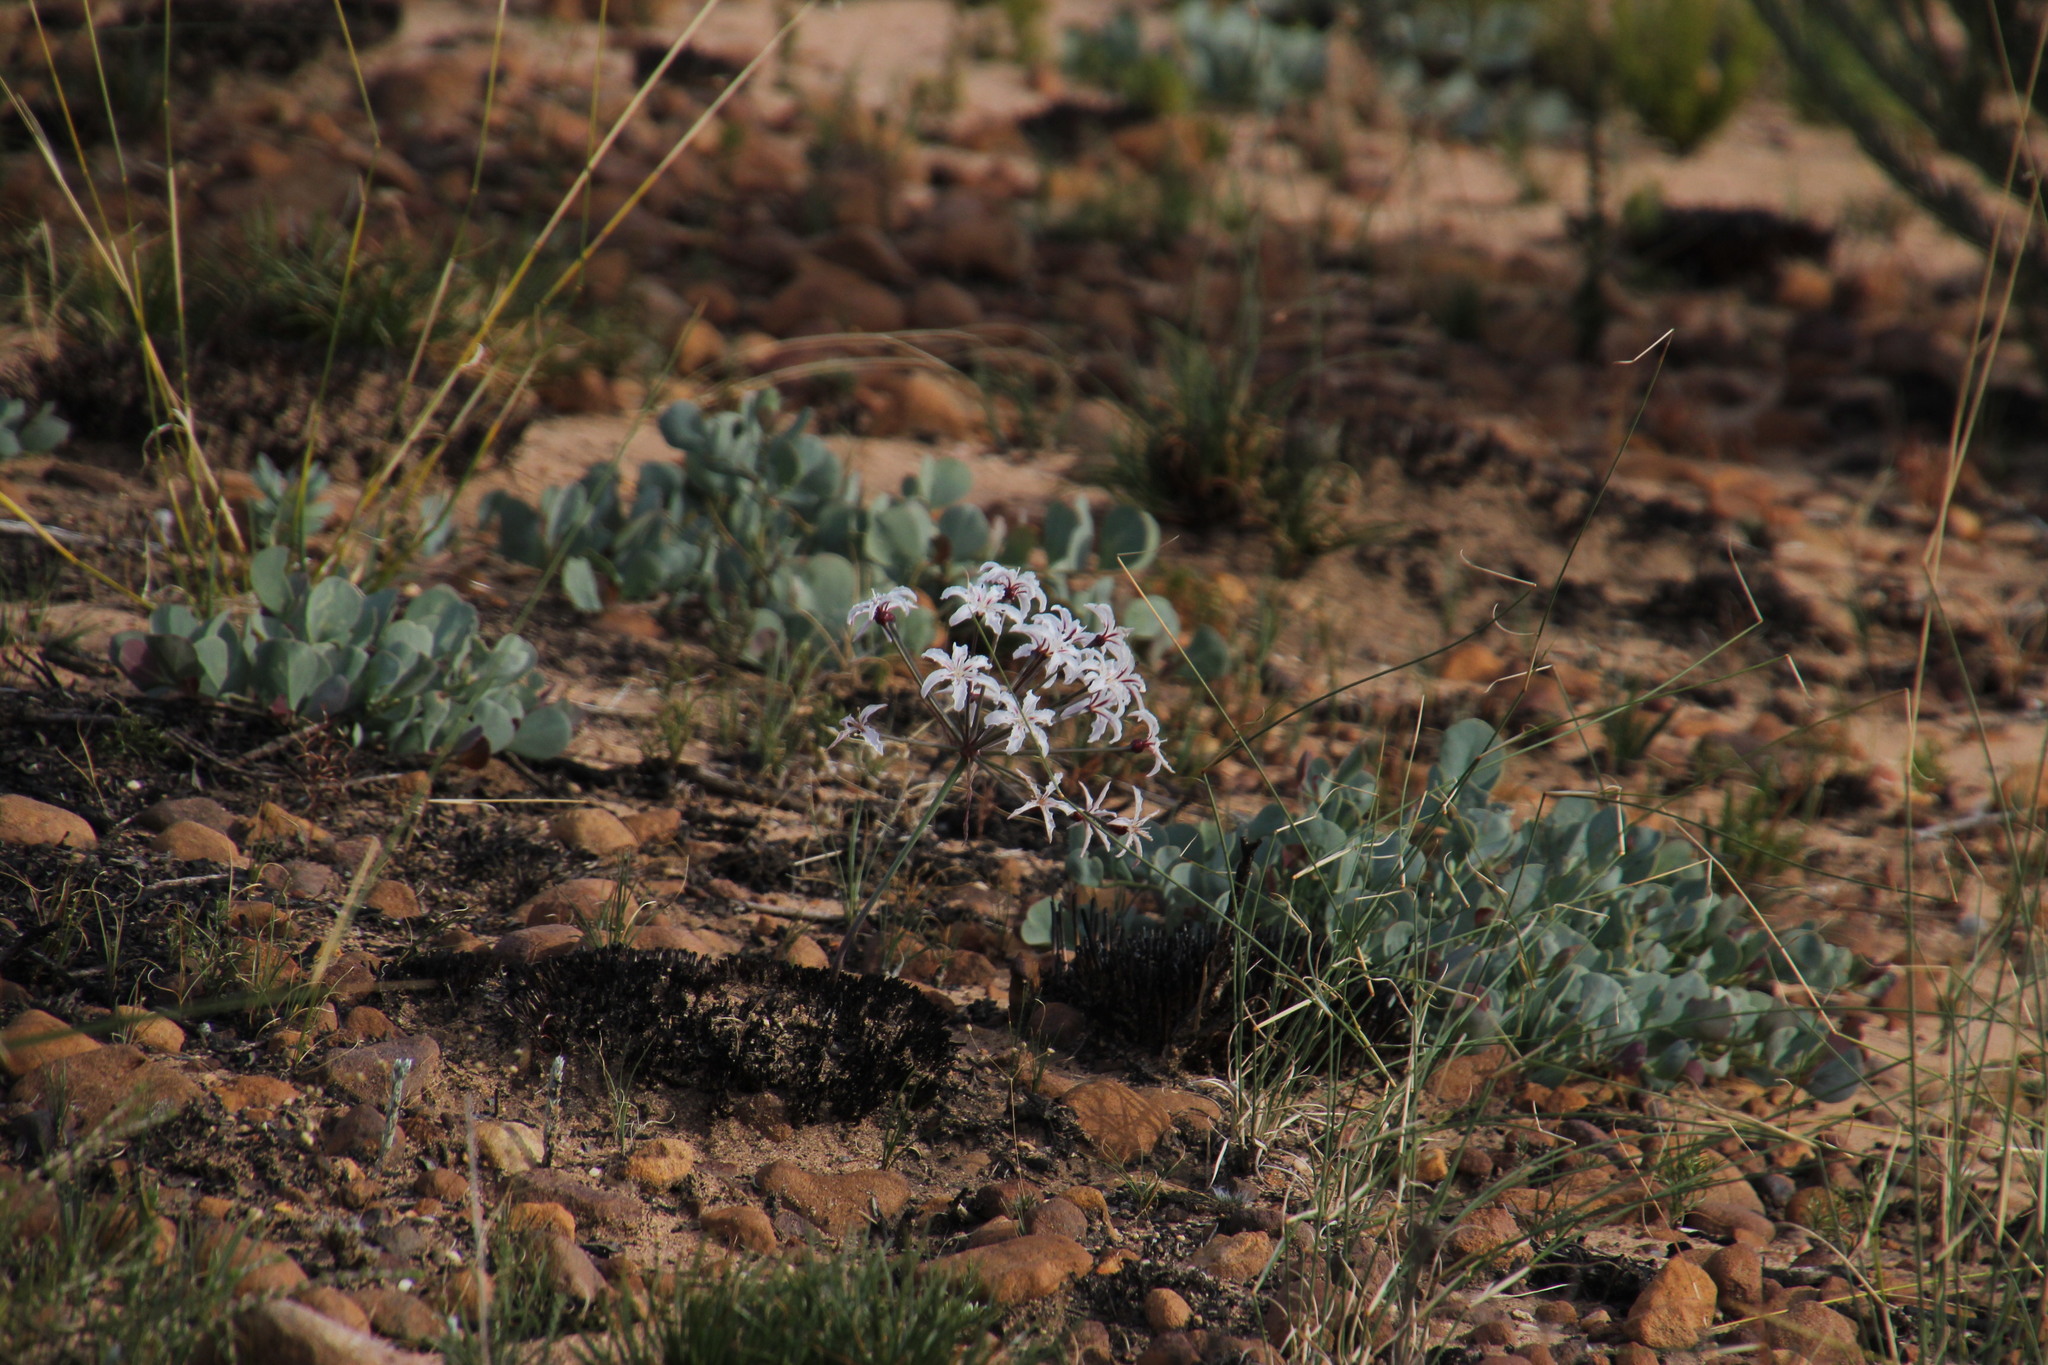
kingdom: Plantae
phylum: Tracheophyta
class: Liliopsida
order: Asparagales
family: Amaryllidaceae
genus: Hessea
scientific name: Hessea monticola
